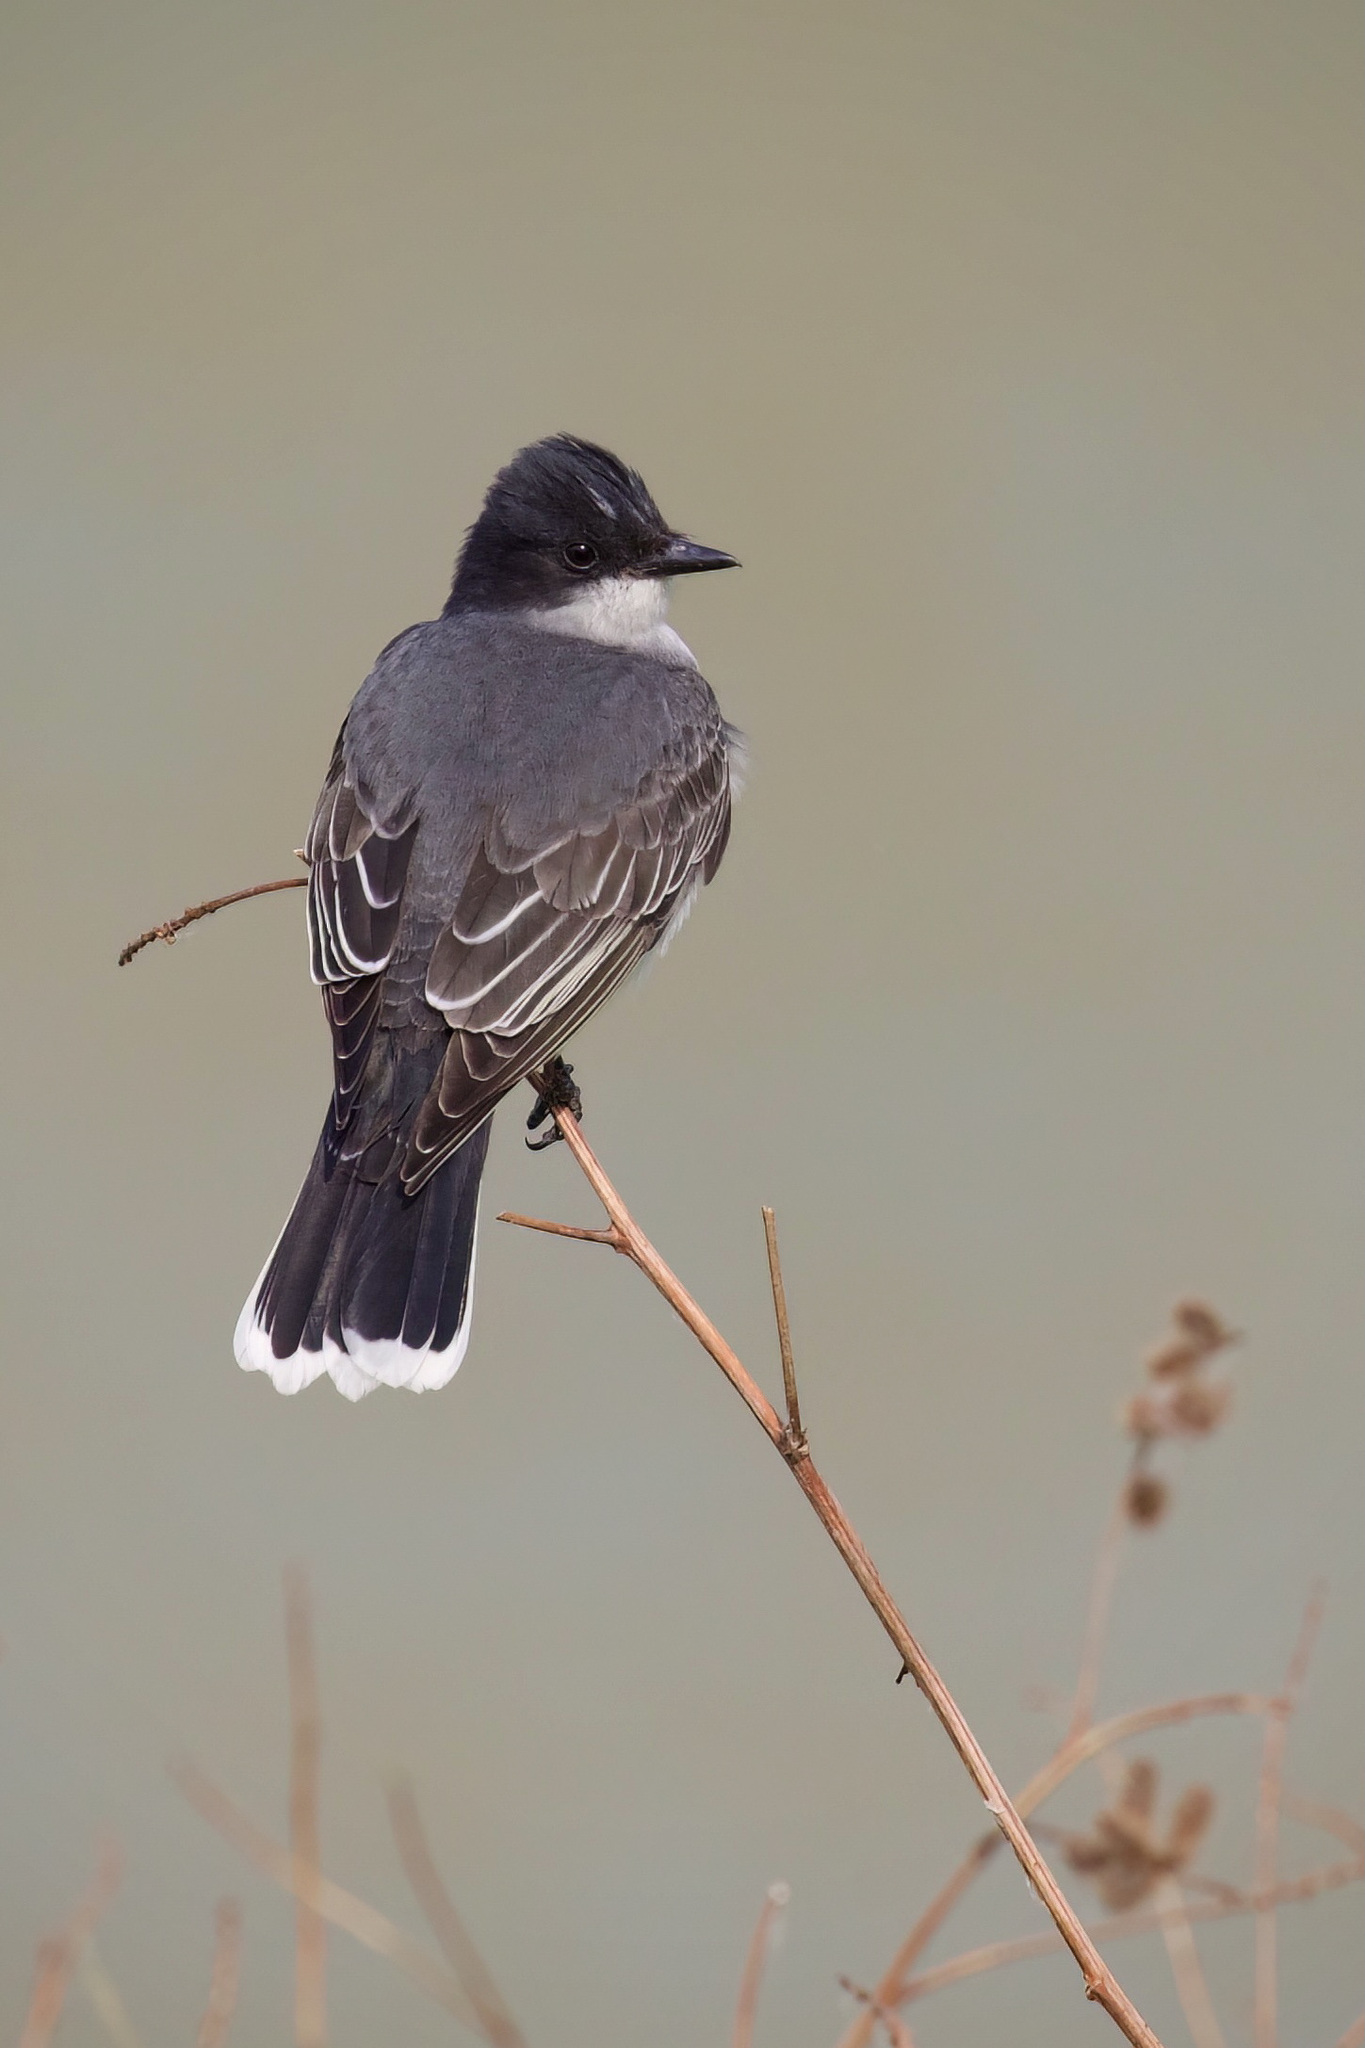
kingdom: Animalia
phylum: Chordata
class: Aves
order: Passeriformes
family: Tyrannidae
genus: Tyrannus
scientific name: Tyrannus tyrannus
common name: Eastern kingbird
